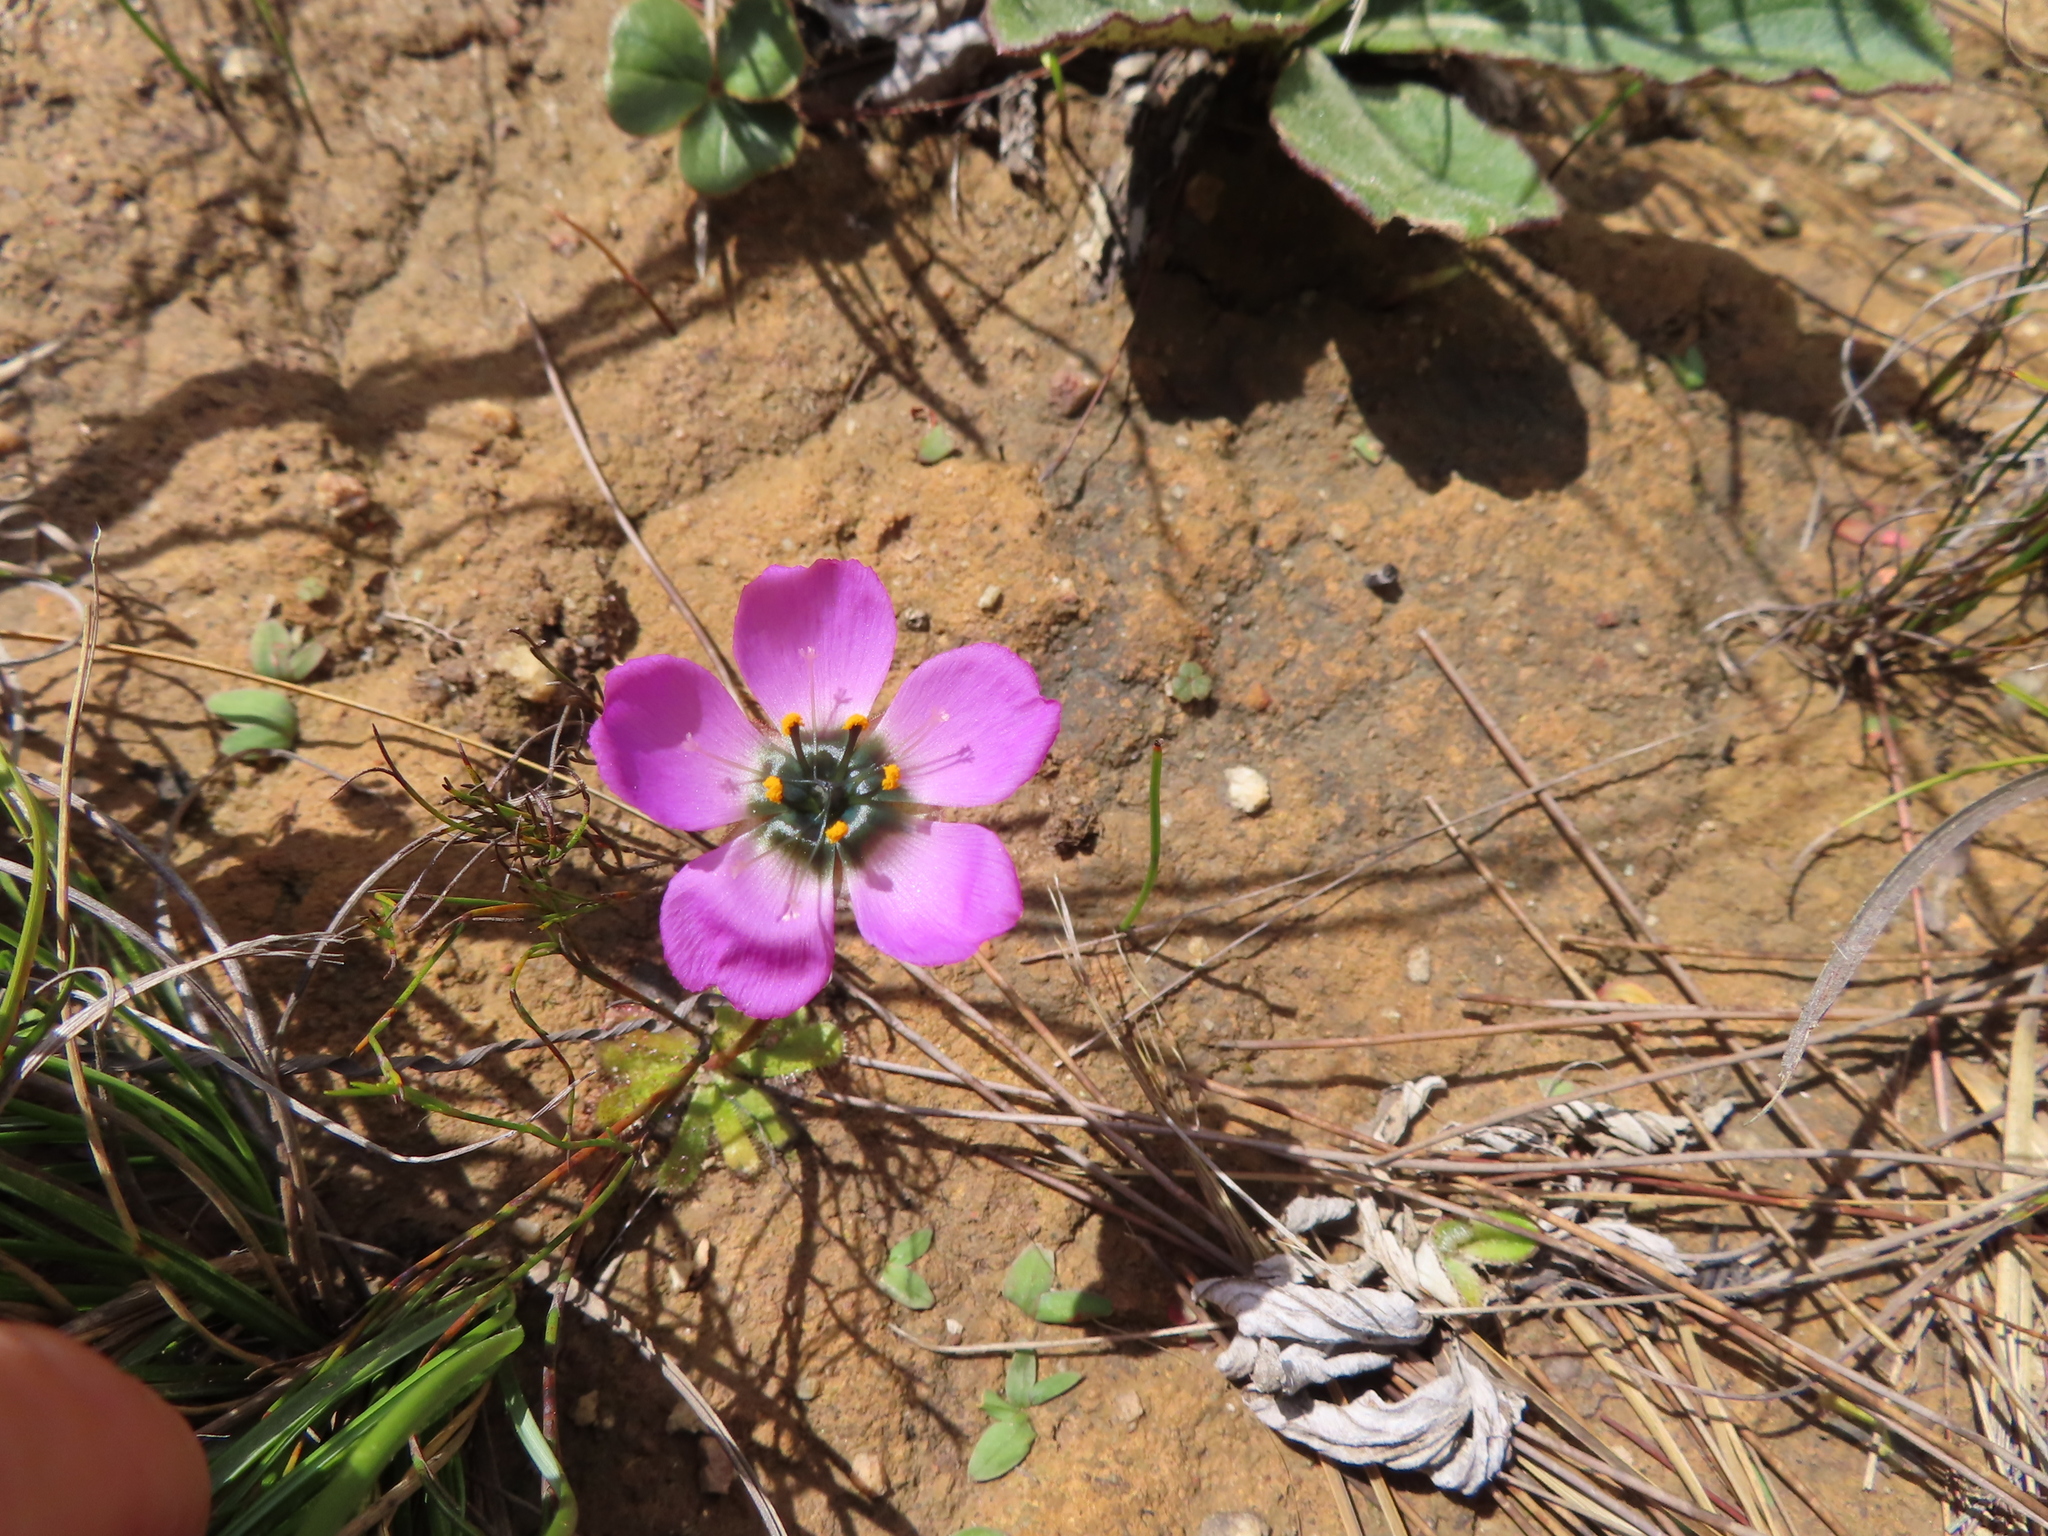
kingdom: Plantae
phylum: Tracheophyta
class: Magnoliopsida
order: Caryophyllales
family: Droseraceae
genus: Drosera
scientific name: Drosera pauciflora
